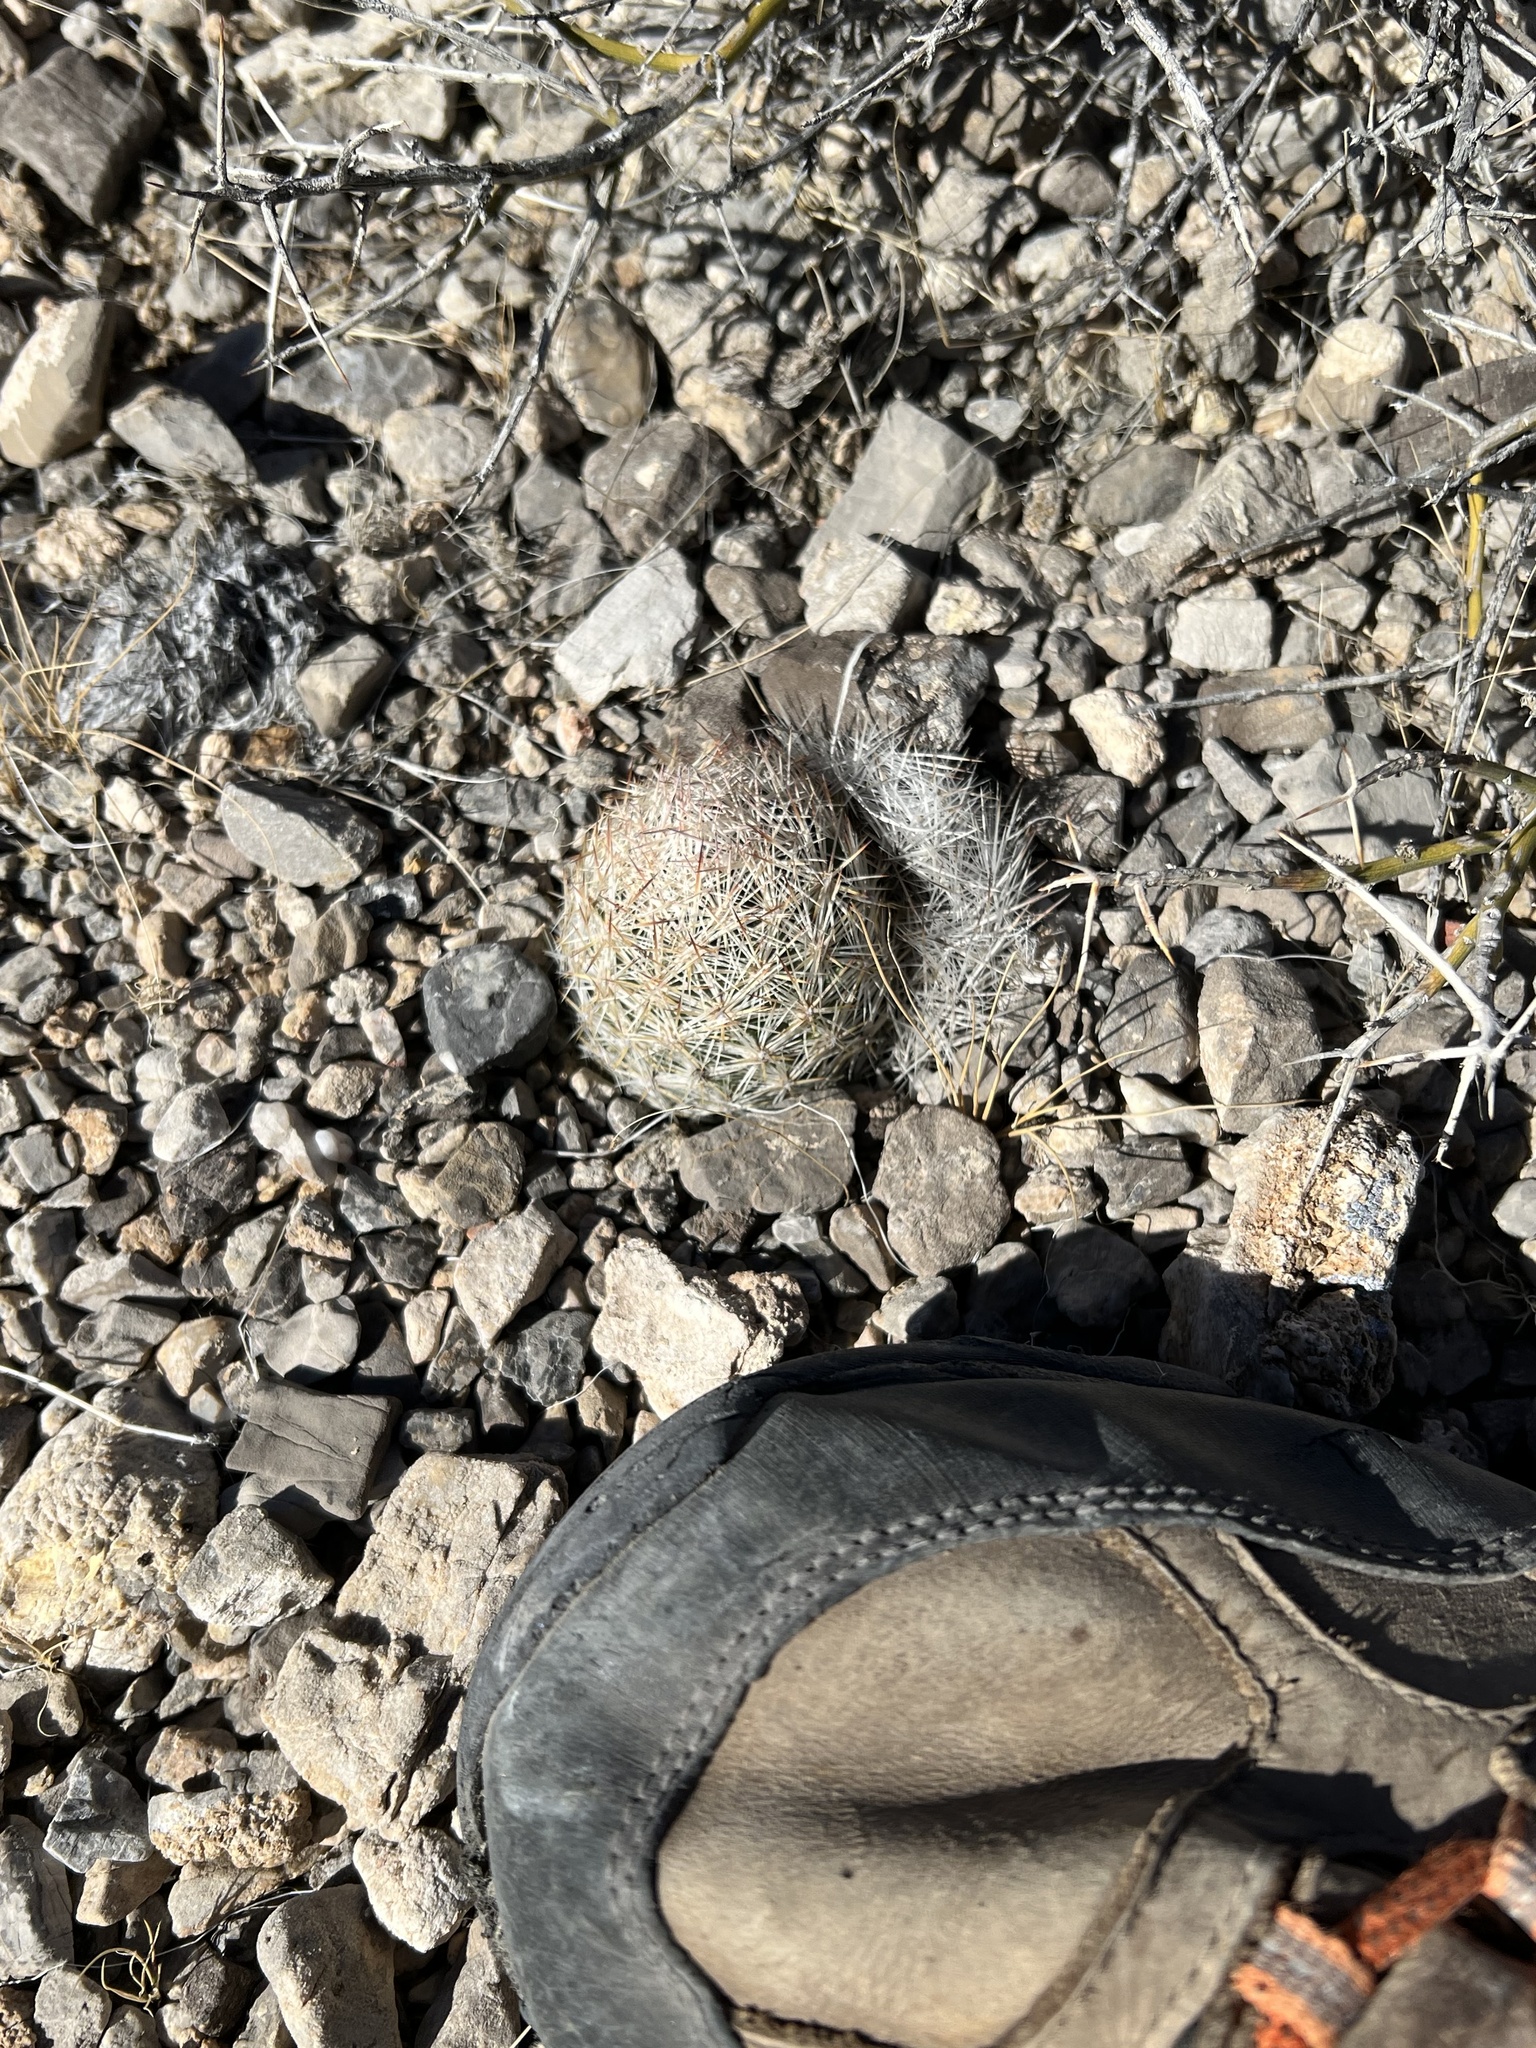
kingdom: Plantae
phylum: Tracheophyta
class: Magnoliopsida
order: Caryophyllales
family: Cactaceae
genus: Pelecyphora
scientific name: Pelecyphora dasyacantha
